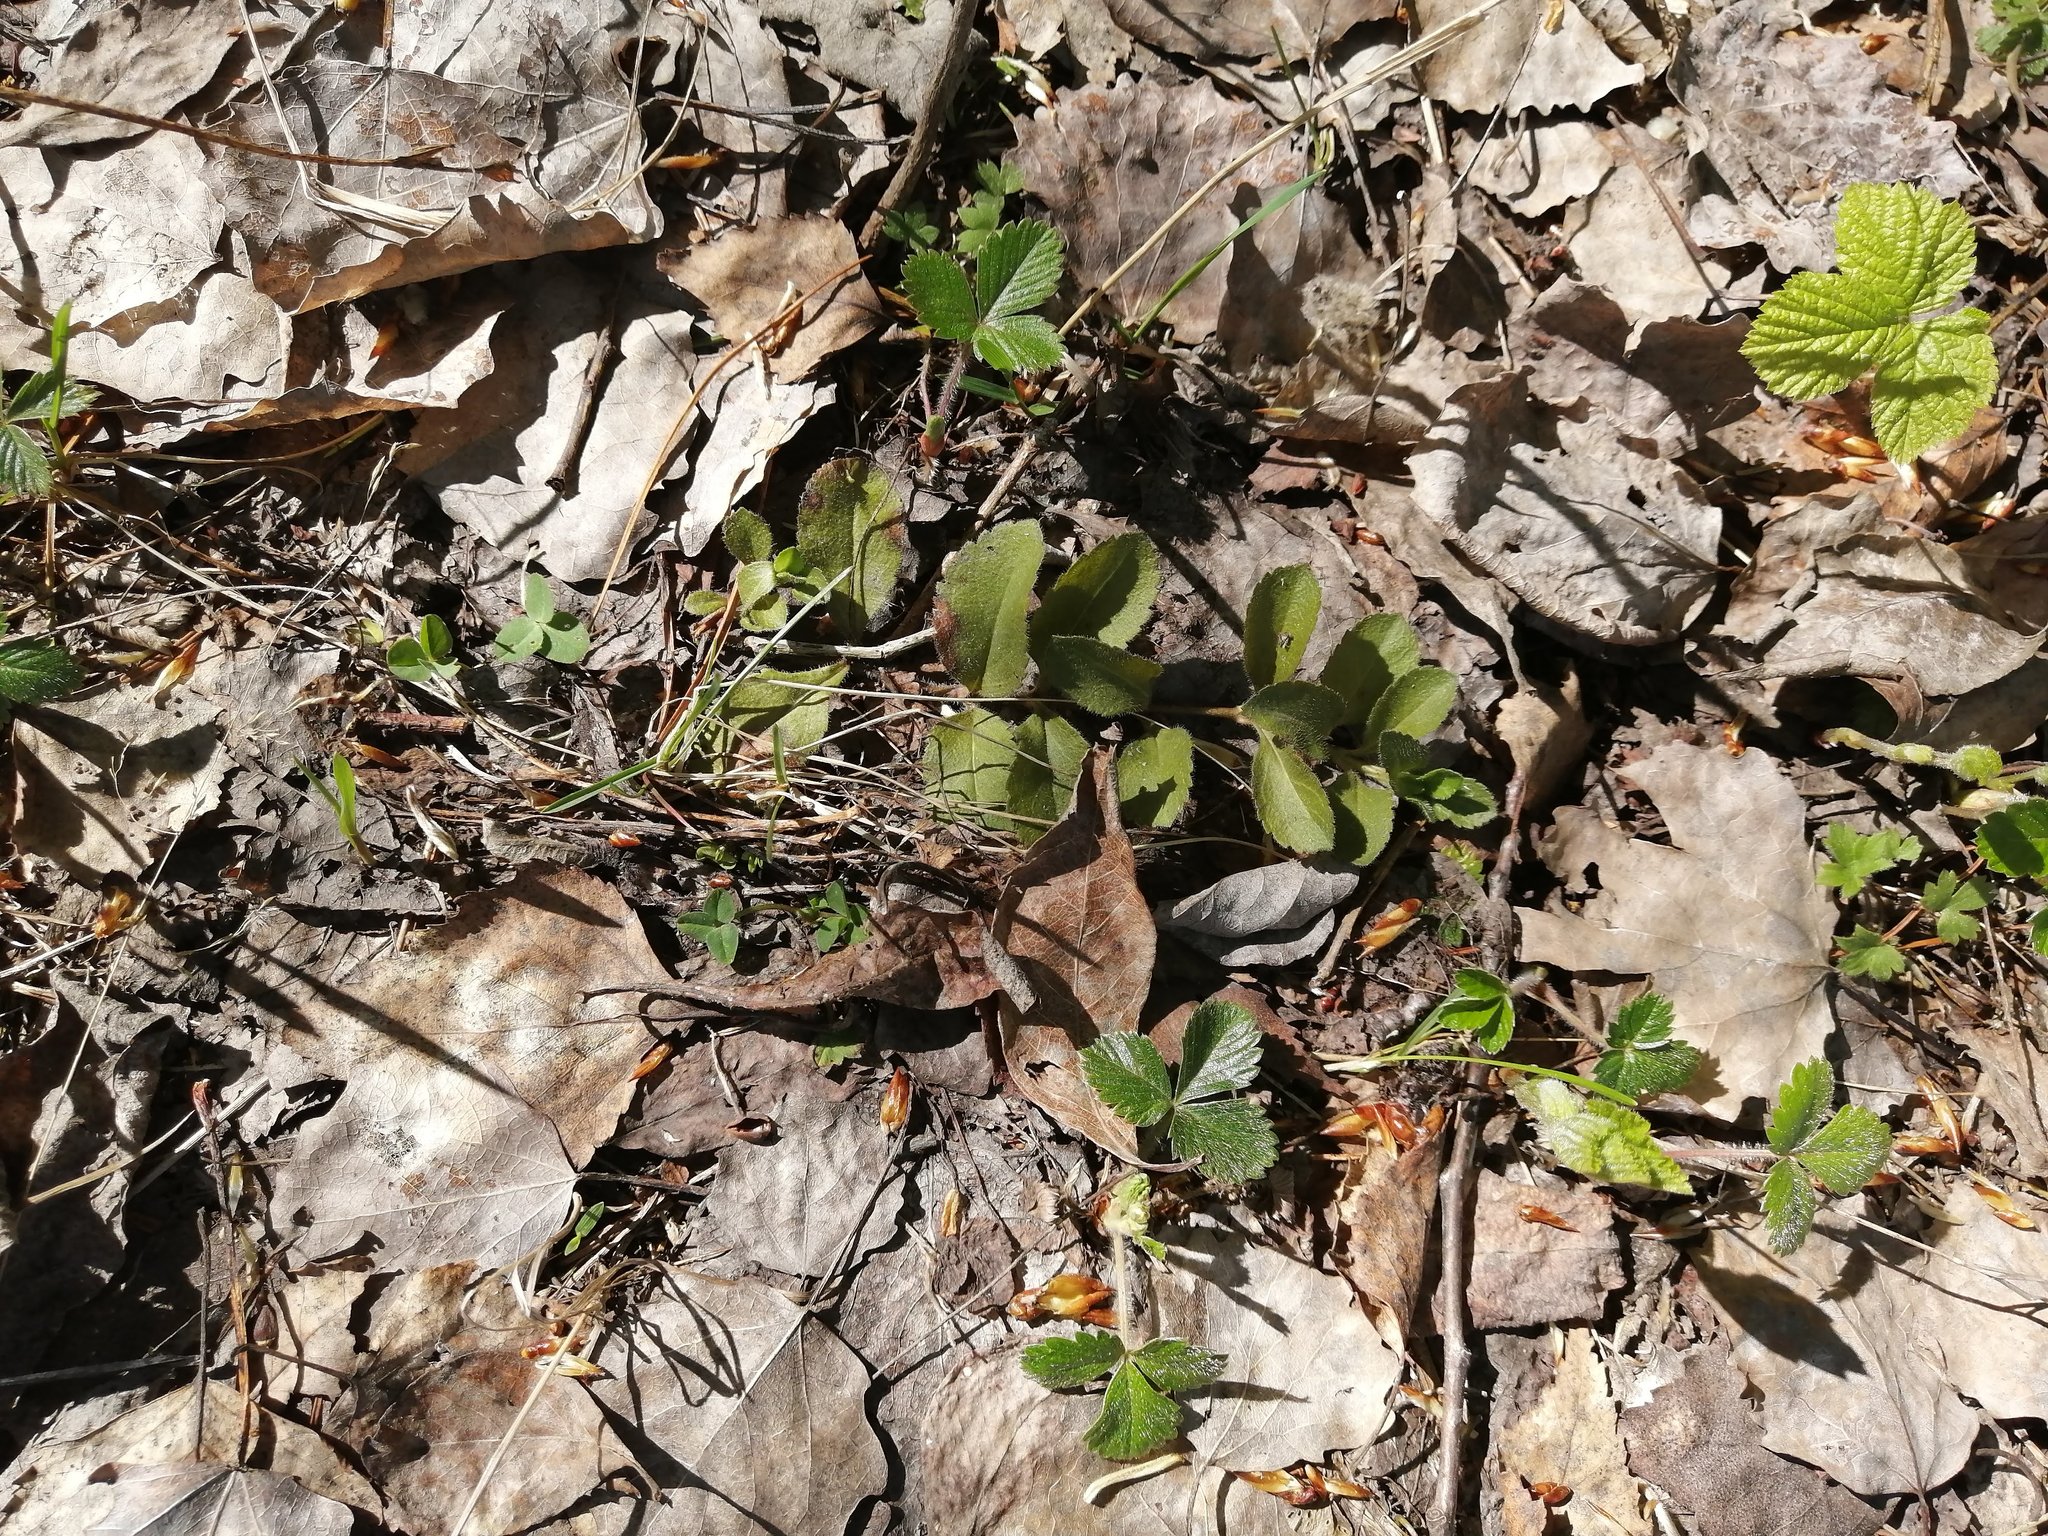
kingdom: Plantae
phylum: Tracheophyta
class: Magnoliopsida
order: Lamiales
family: Plantaginaceae
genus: Veronica
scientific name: Veronica officinalis
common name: Common speedwell
